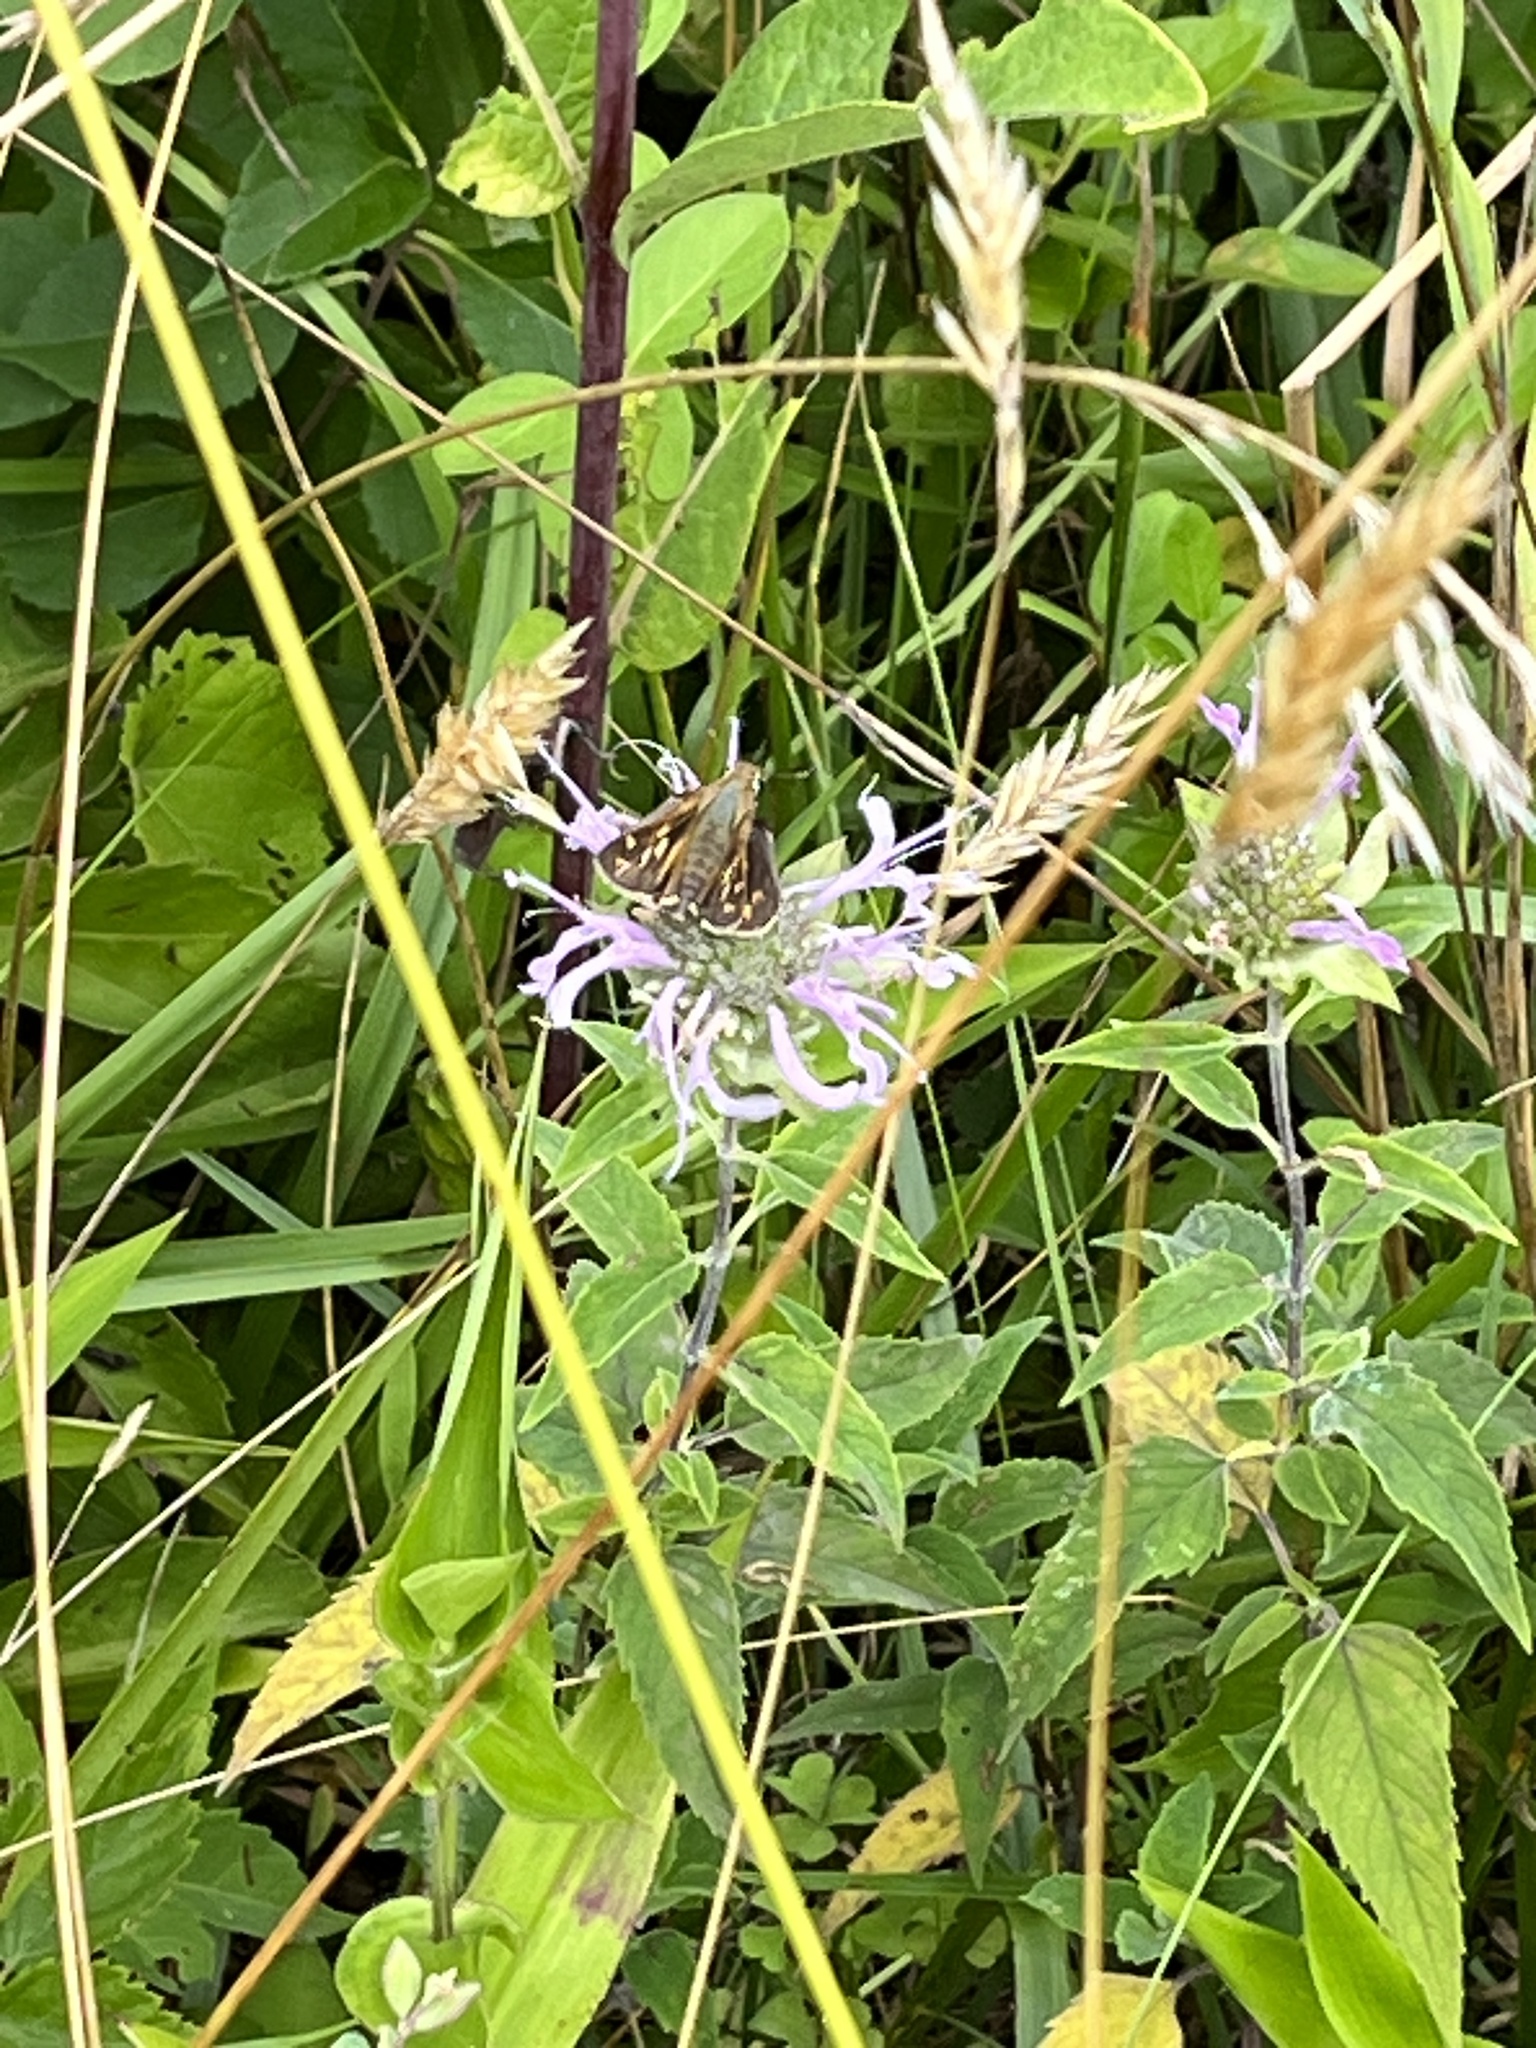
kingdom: Animalia
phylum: Arthropoda
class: Insecta
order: Lepidoptera
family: Hesperiidae
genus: Atalopedes
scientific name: Atalopedes
